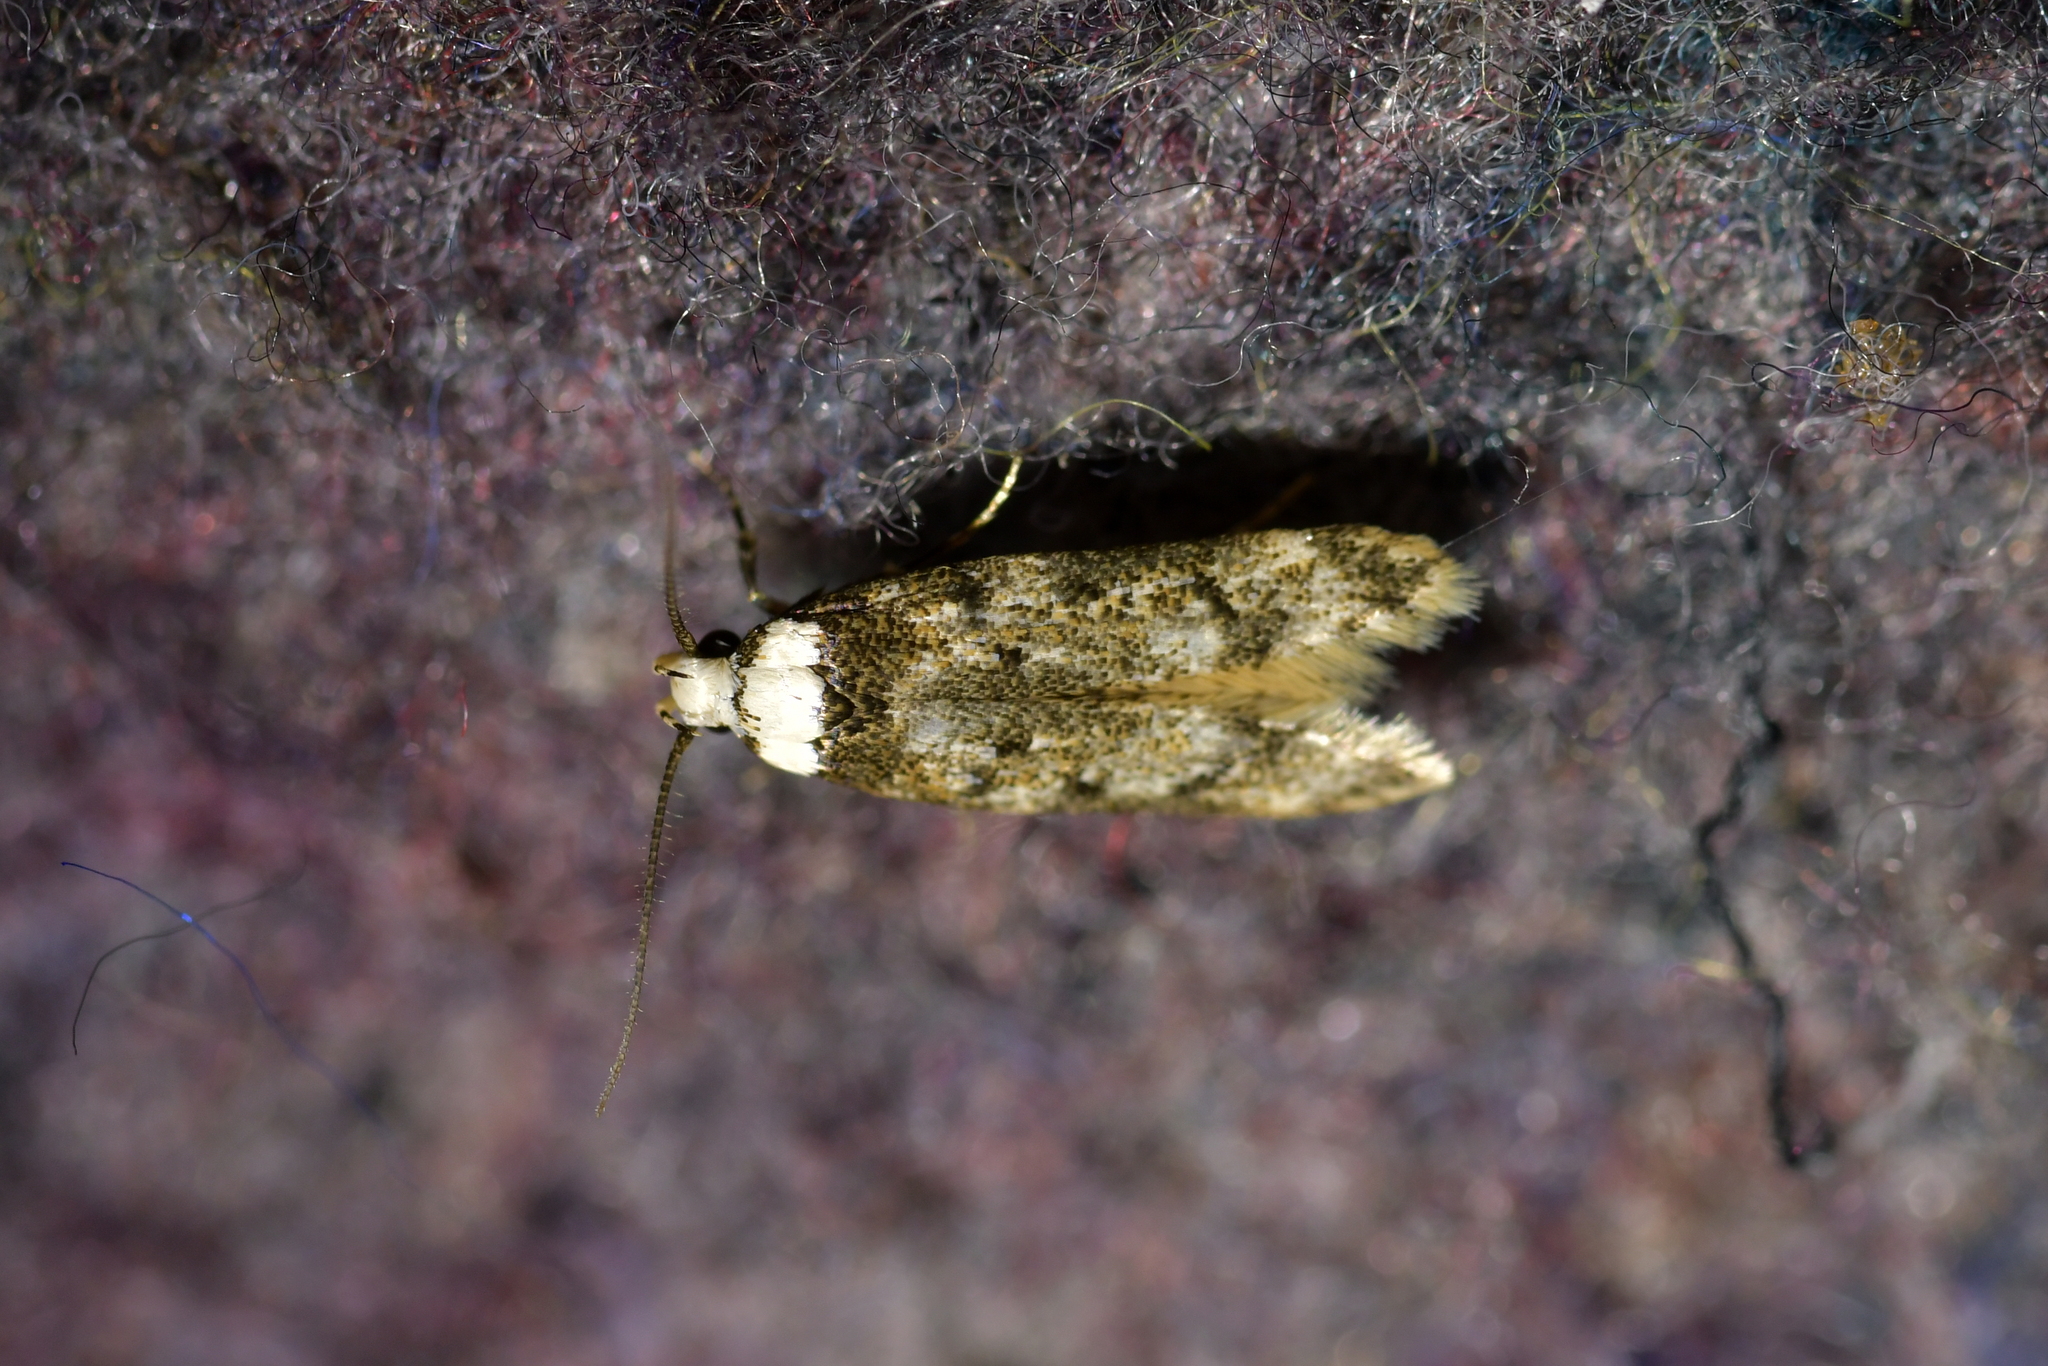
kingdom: Animalia
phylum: Arthropoda
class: Insecta
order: Lepidoptera
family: Oecophoridae
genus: Endrosis
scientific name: Endrosis sarcitrella
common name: White-shouldered house moth
